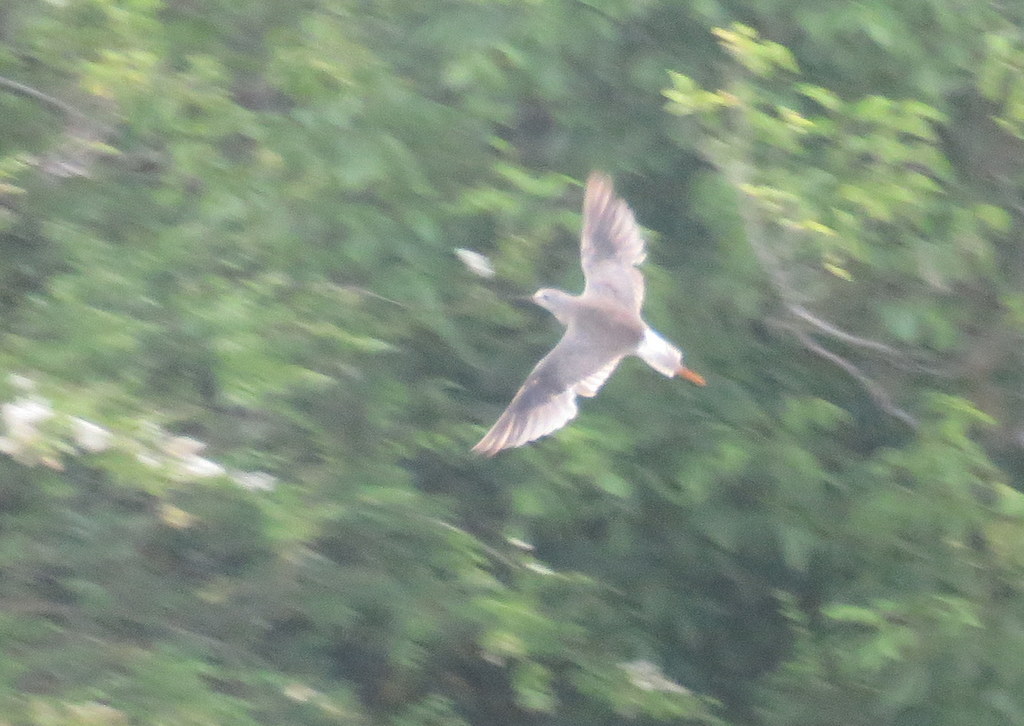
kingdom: Animalia
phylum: Chordata
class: Aves
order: Charadriiformes
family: Scolopacidae
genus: Tringa
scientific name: Tringa flavipes
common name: Lesser yellowlegs
